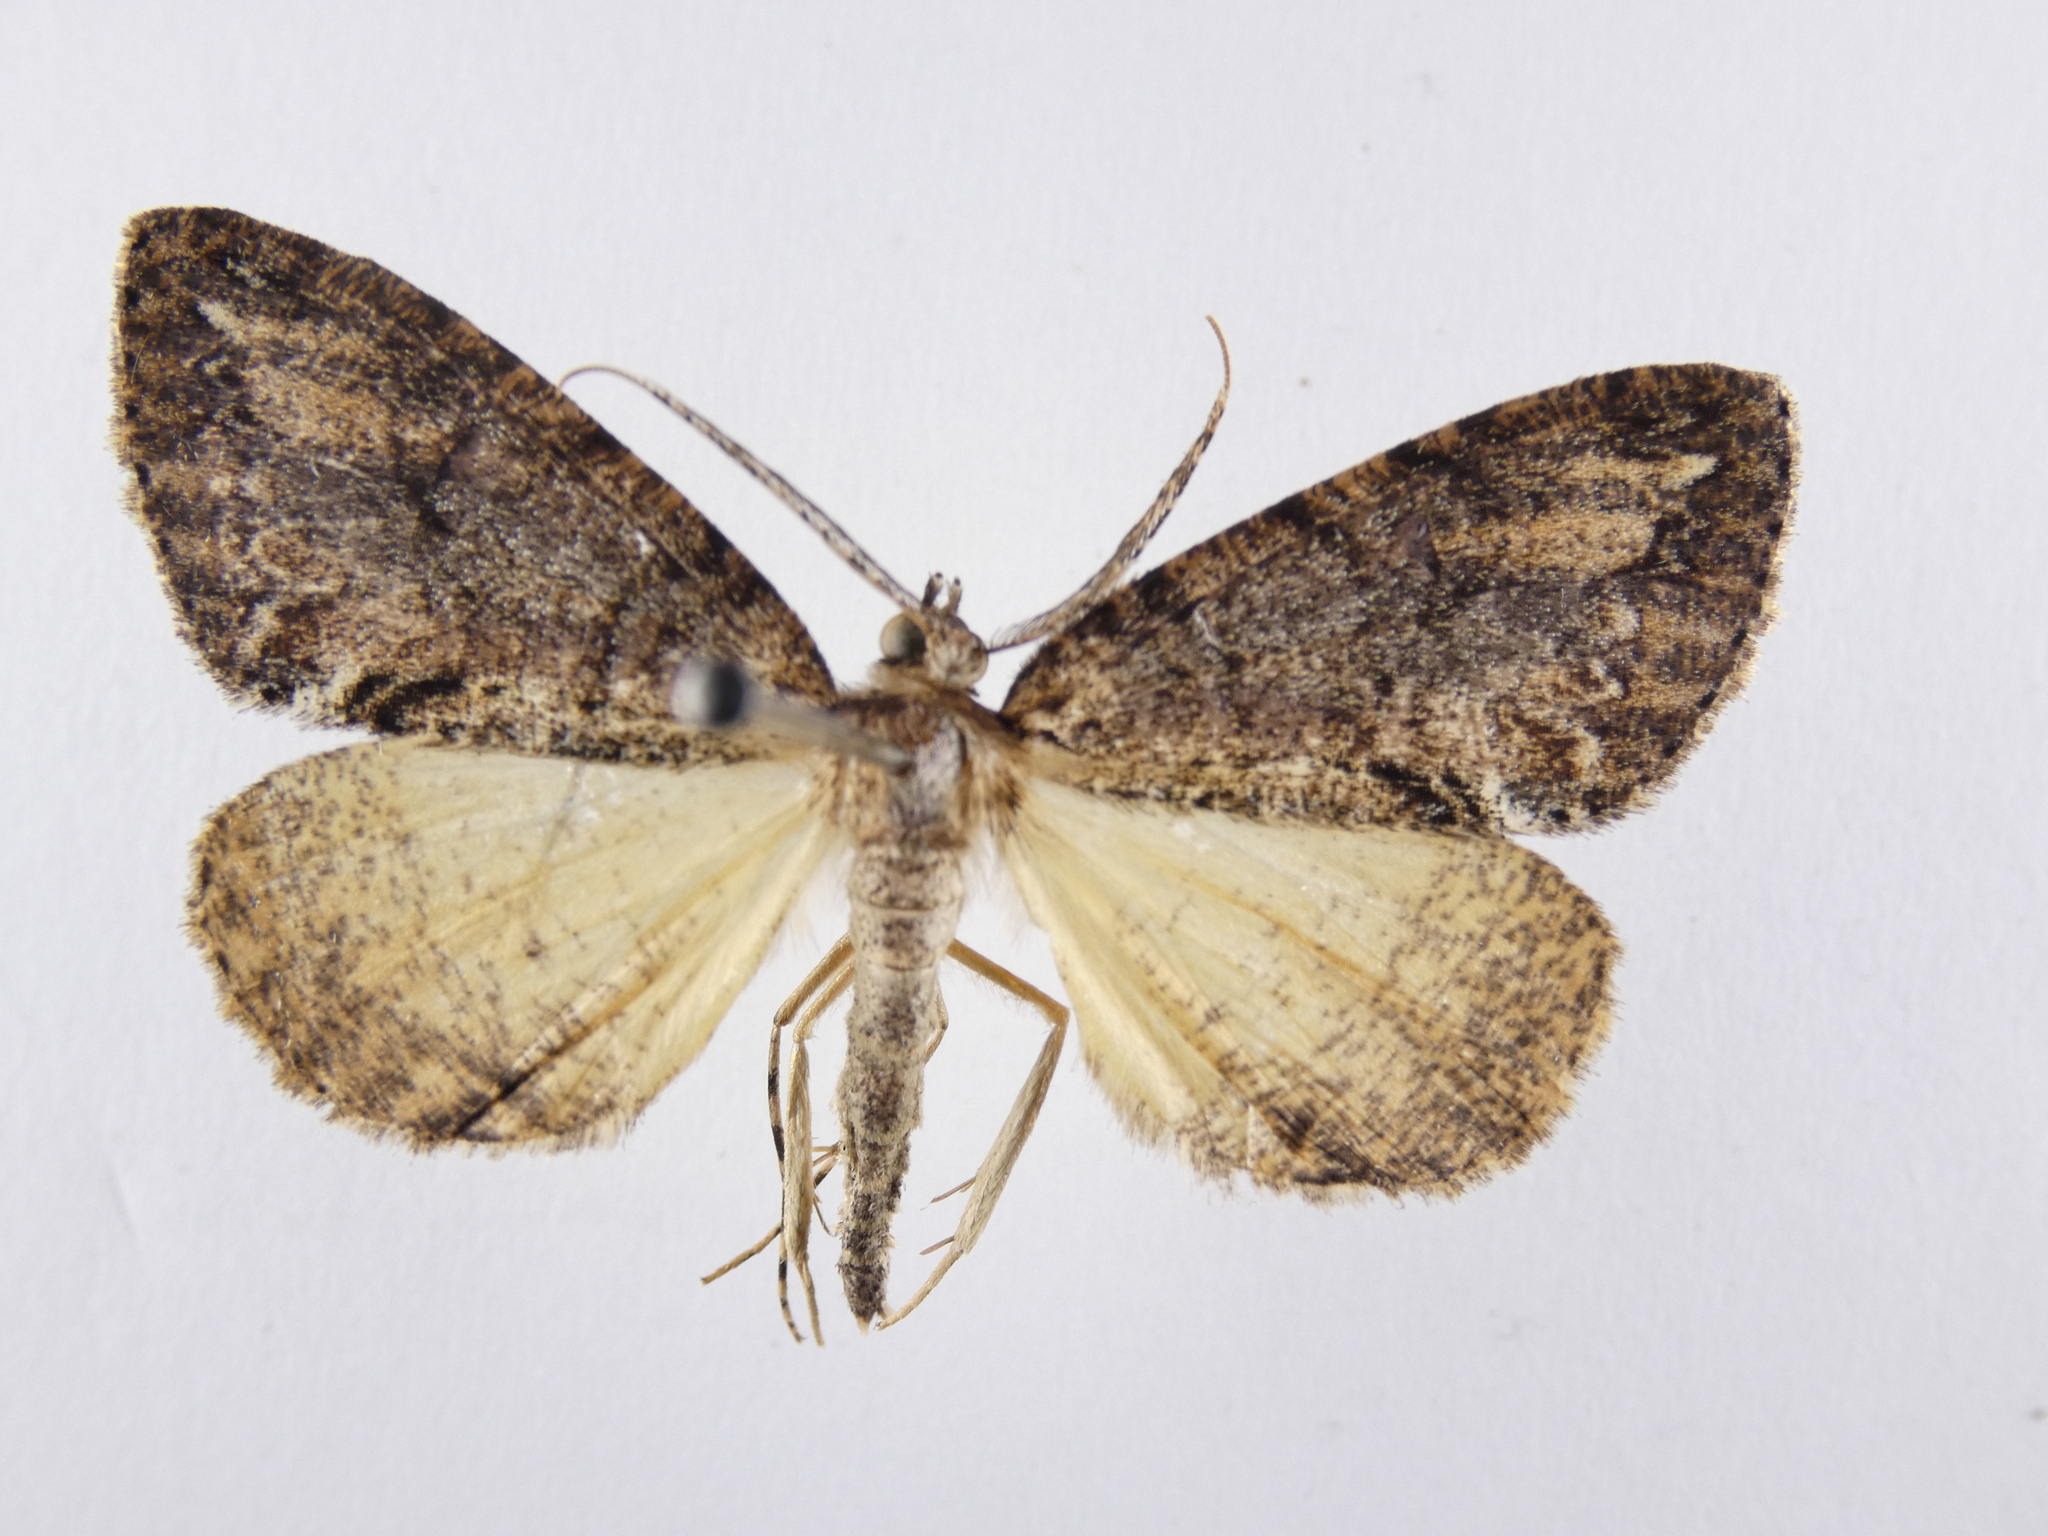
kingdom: Animalia
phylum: Arthropoda
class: Insecta
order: Lepidoptera
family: Geometridae
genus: Pseudocoremia
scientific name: Pseudocoremia suavis
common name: Common forest looper
